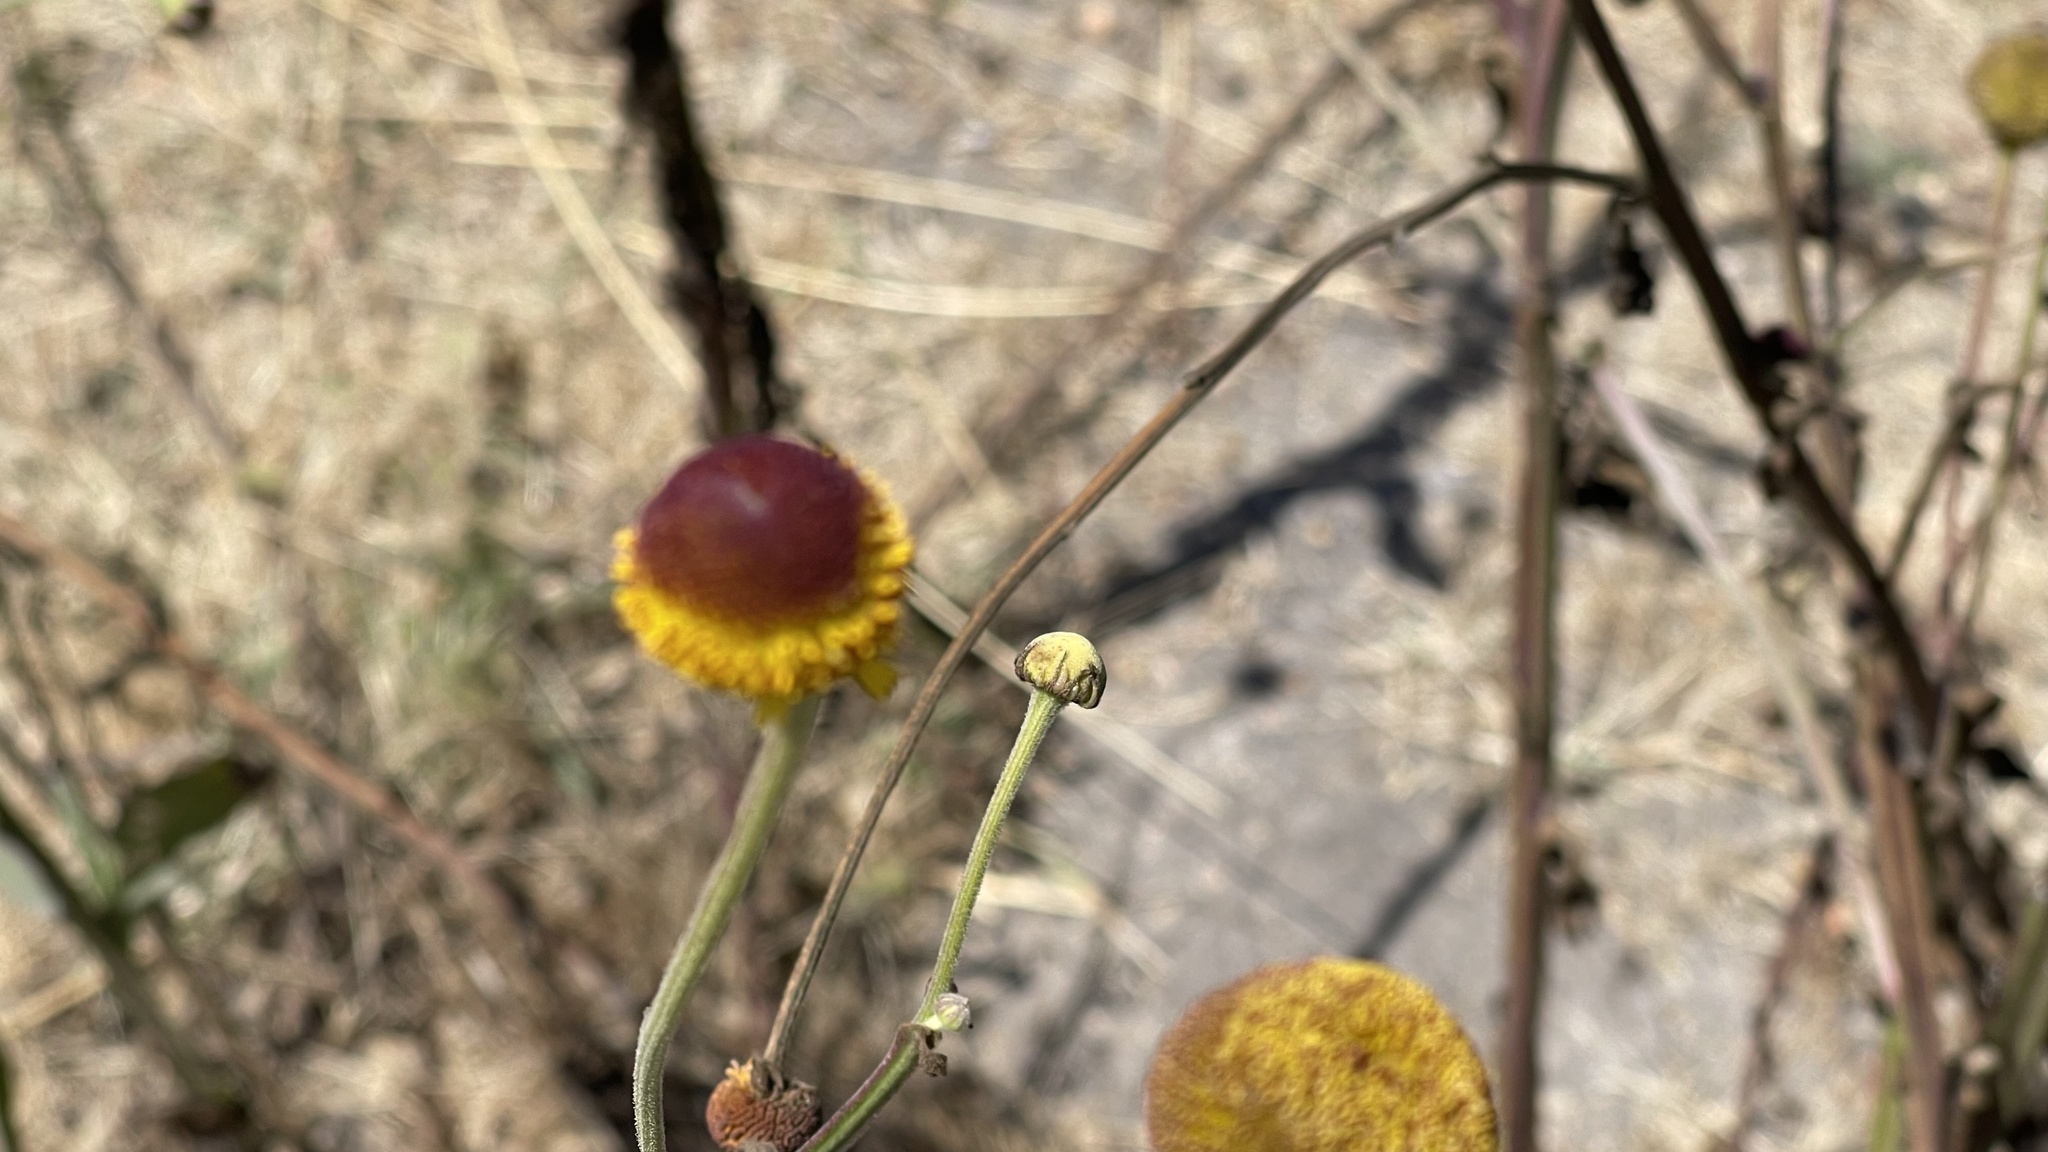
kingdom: Plantae
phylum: Tracheophyta
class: Magnoliopsida
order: Asterales
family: Asteraceae
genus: Helenium
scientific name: Helenium puberulum
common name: Sneezewort
